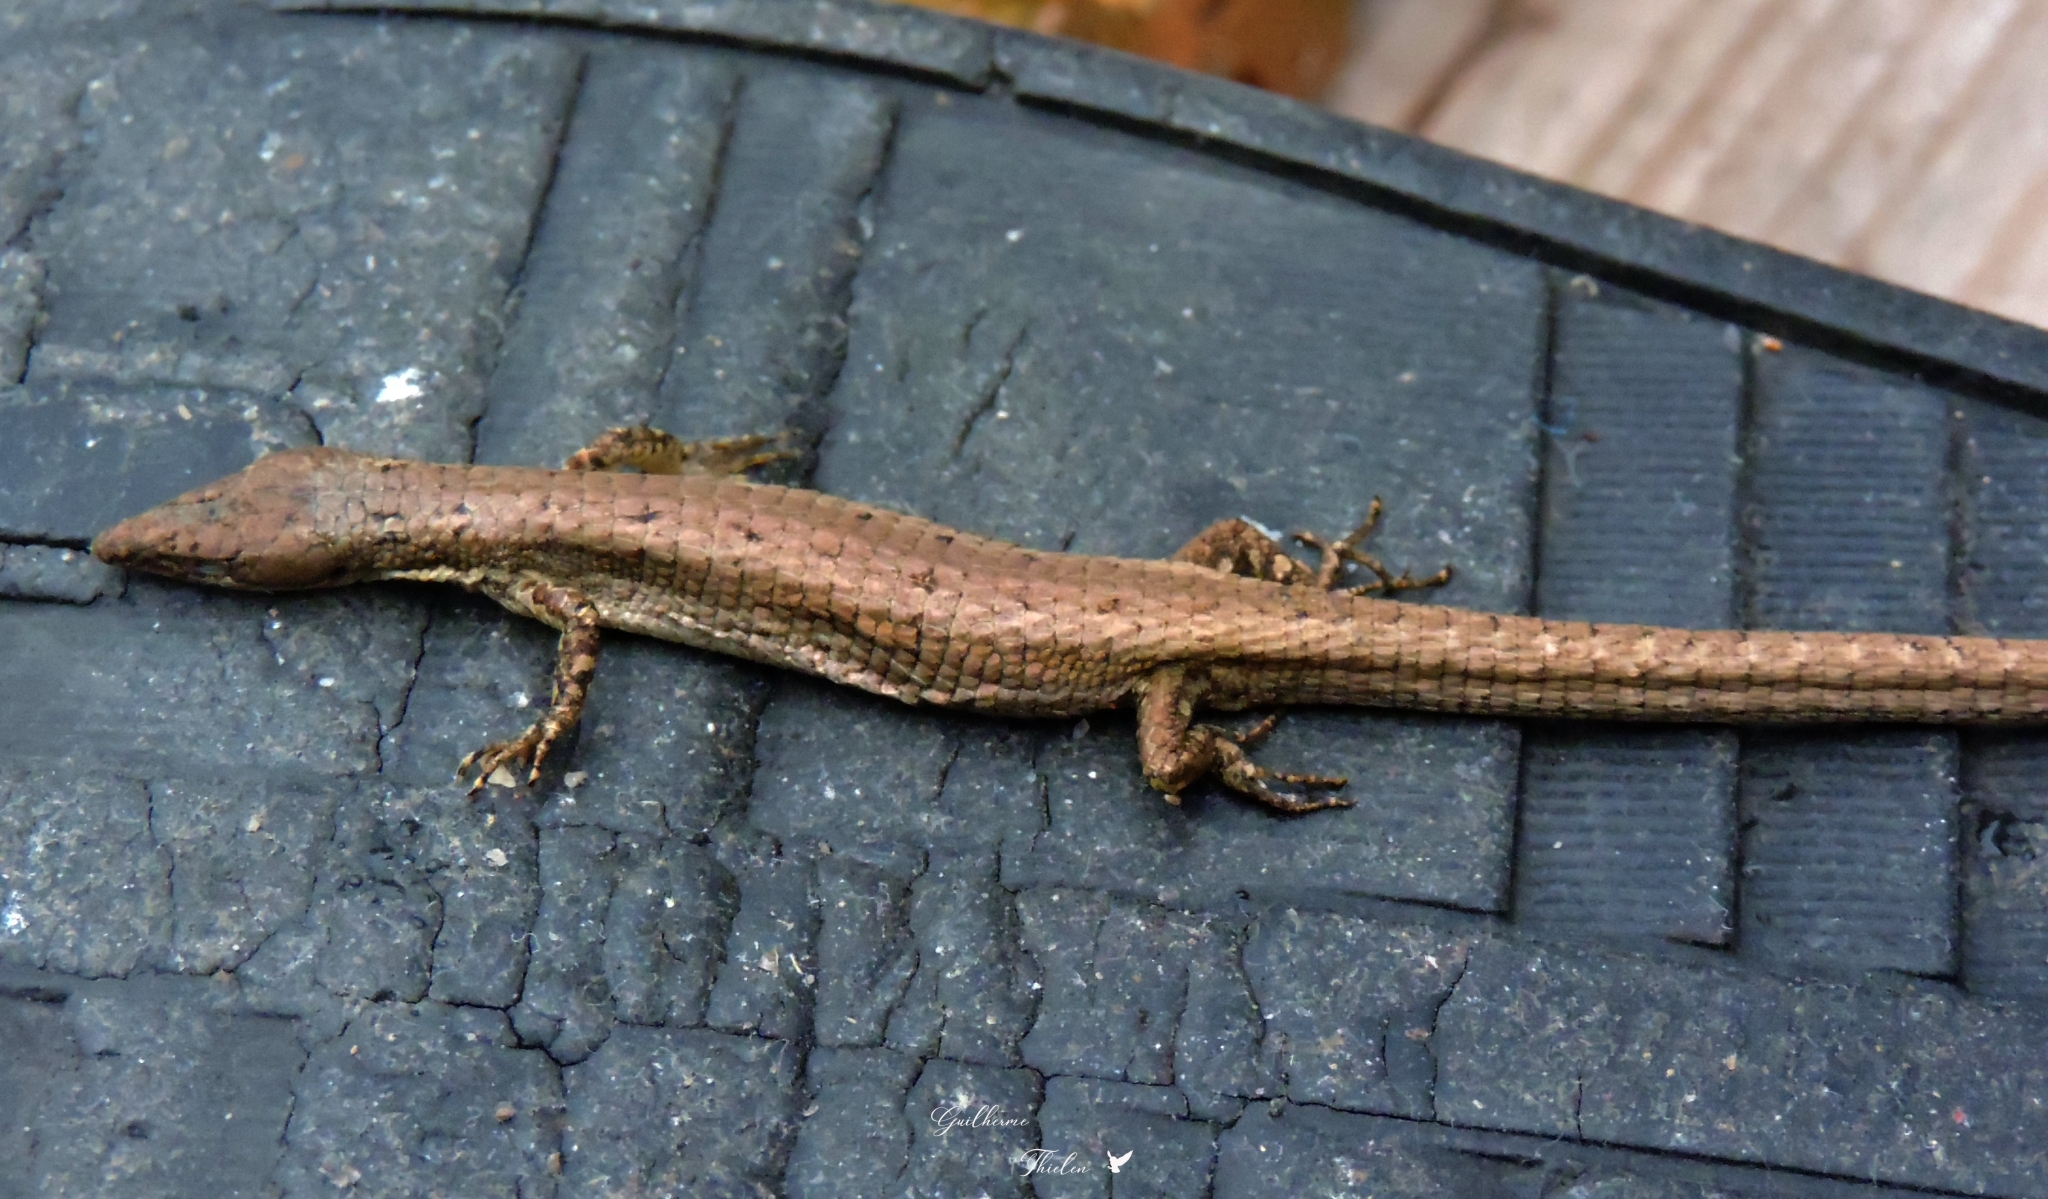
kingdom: Animalia
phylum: Chordata
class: Squamata
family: Gymnophthalmidae
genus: Placosoma
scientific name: Placosoma glabellum
